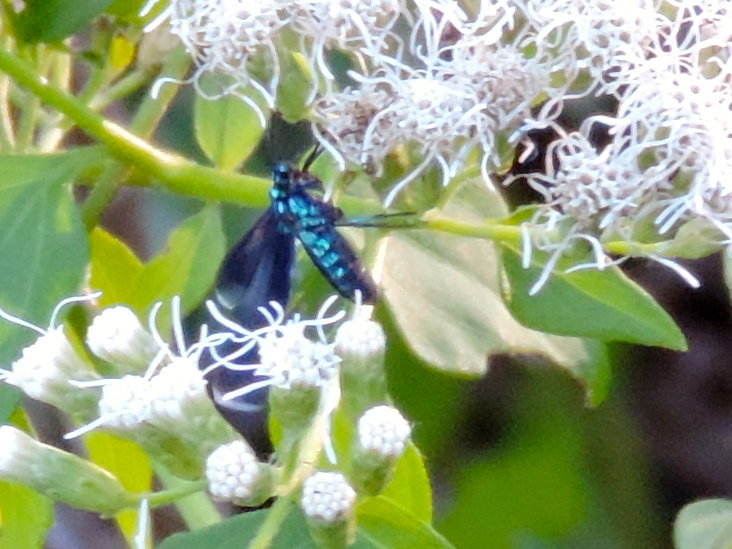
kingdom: Animalia
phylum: Arthropoda
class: Insecta
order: Lepidoptera
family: Erebidae
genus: Uranophora
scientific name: Uranophora leucotela
